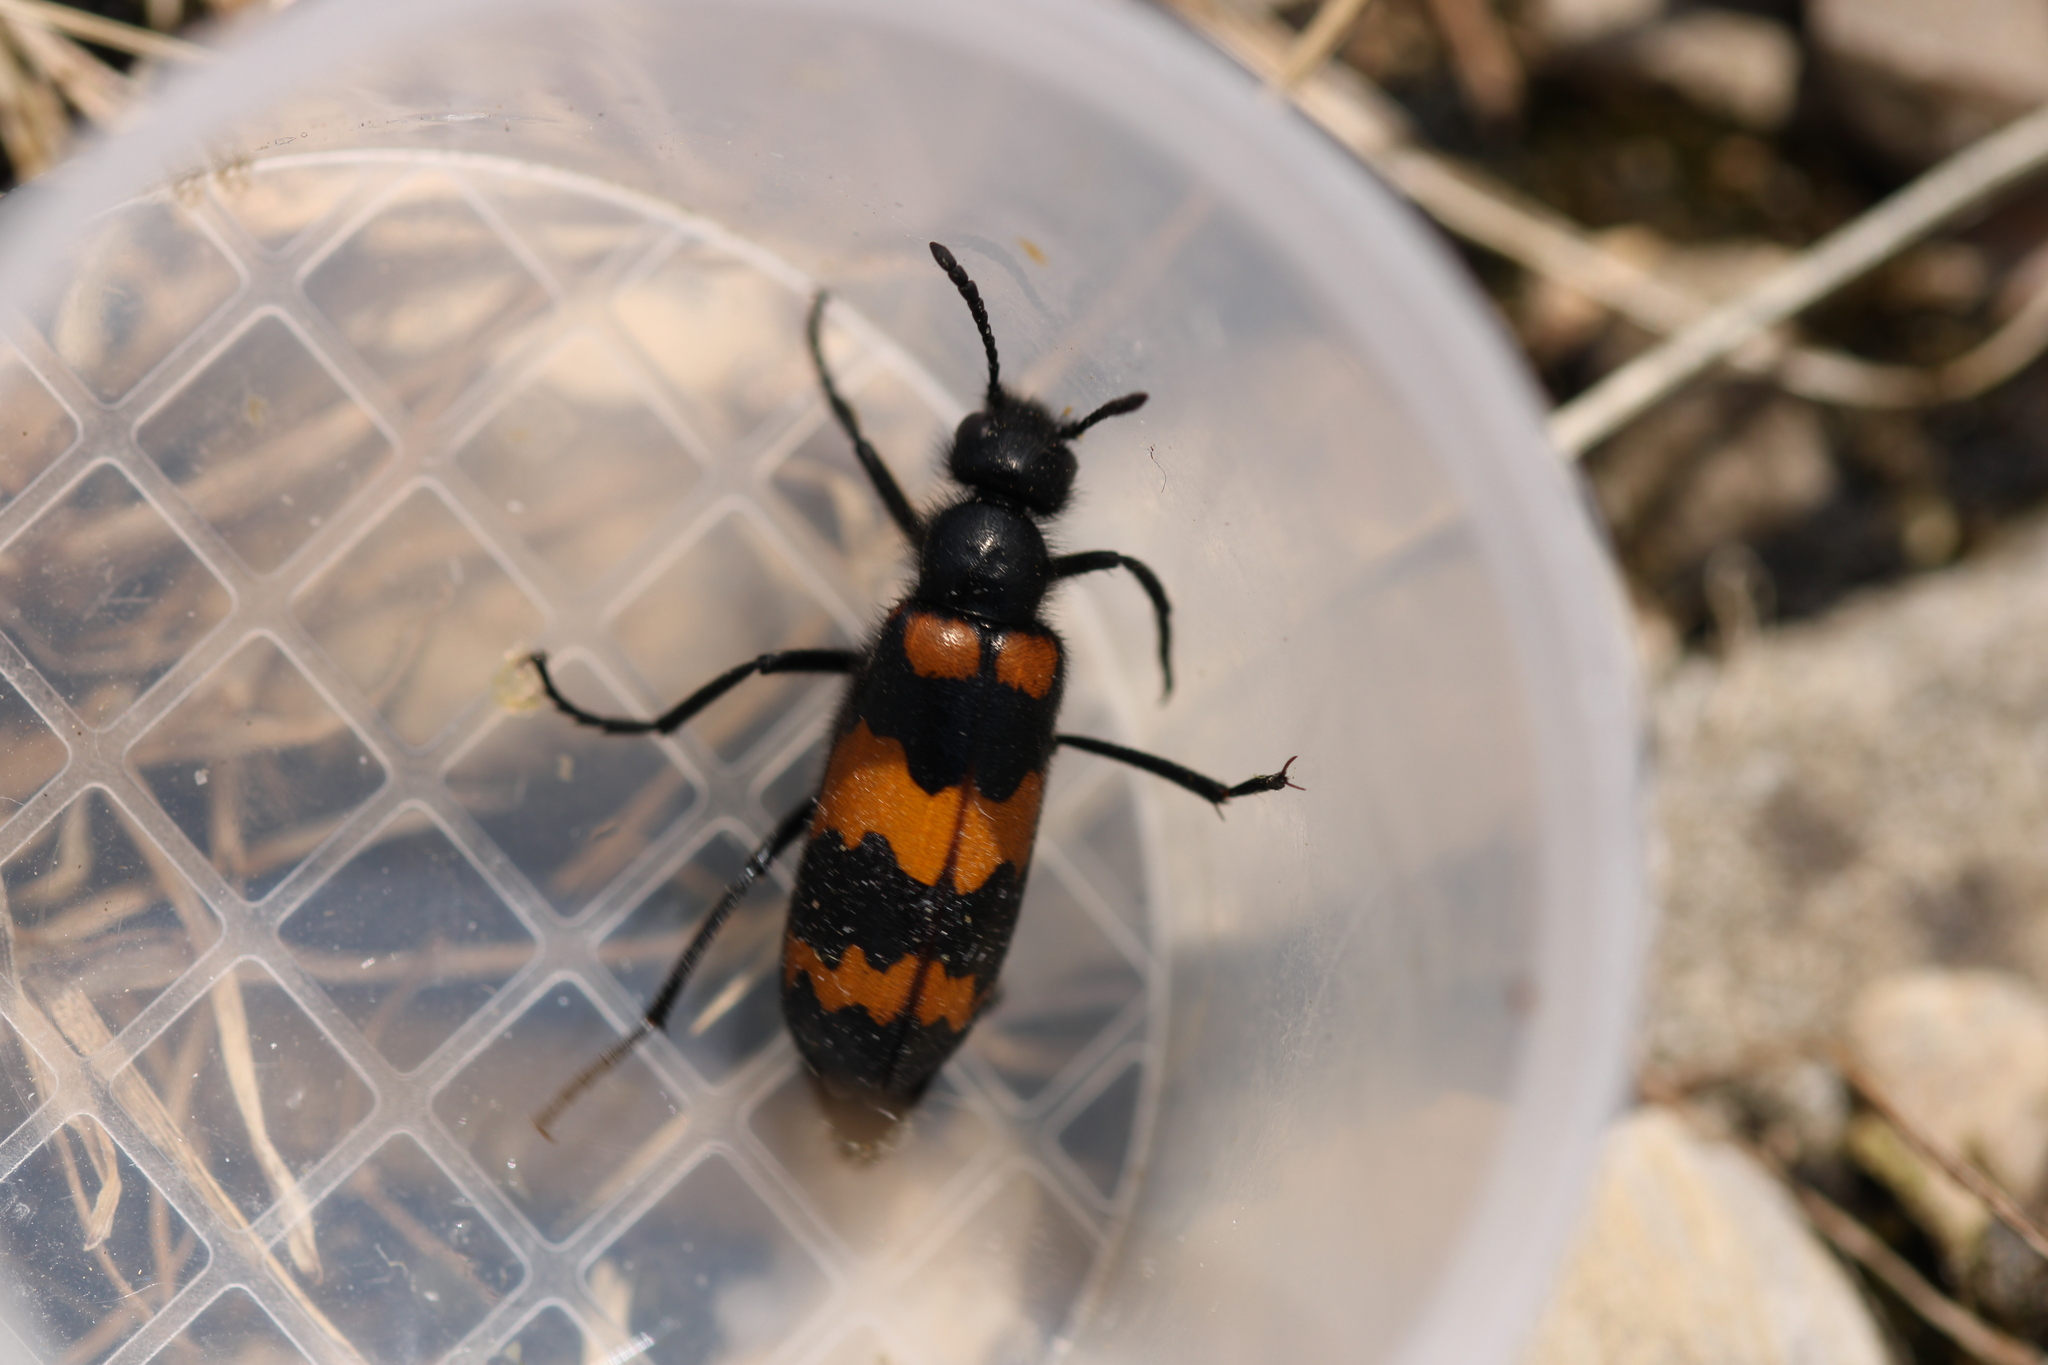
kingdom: Animalia
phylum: Arthropoda
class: Insecta
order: Coleoptera
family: Meloidae
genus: Mylabris
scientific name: Mylabris variabilis
